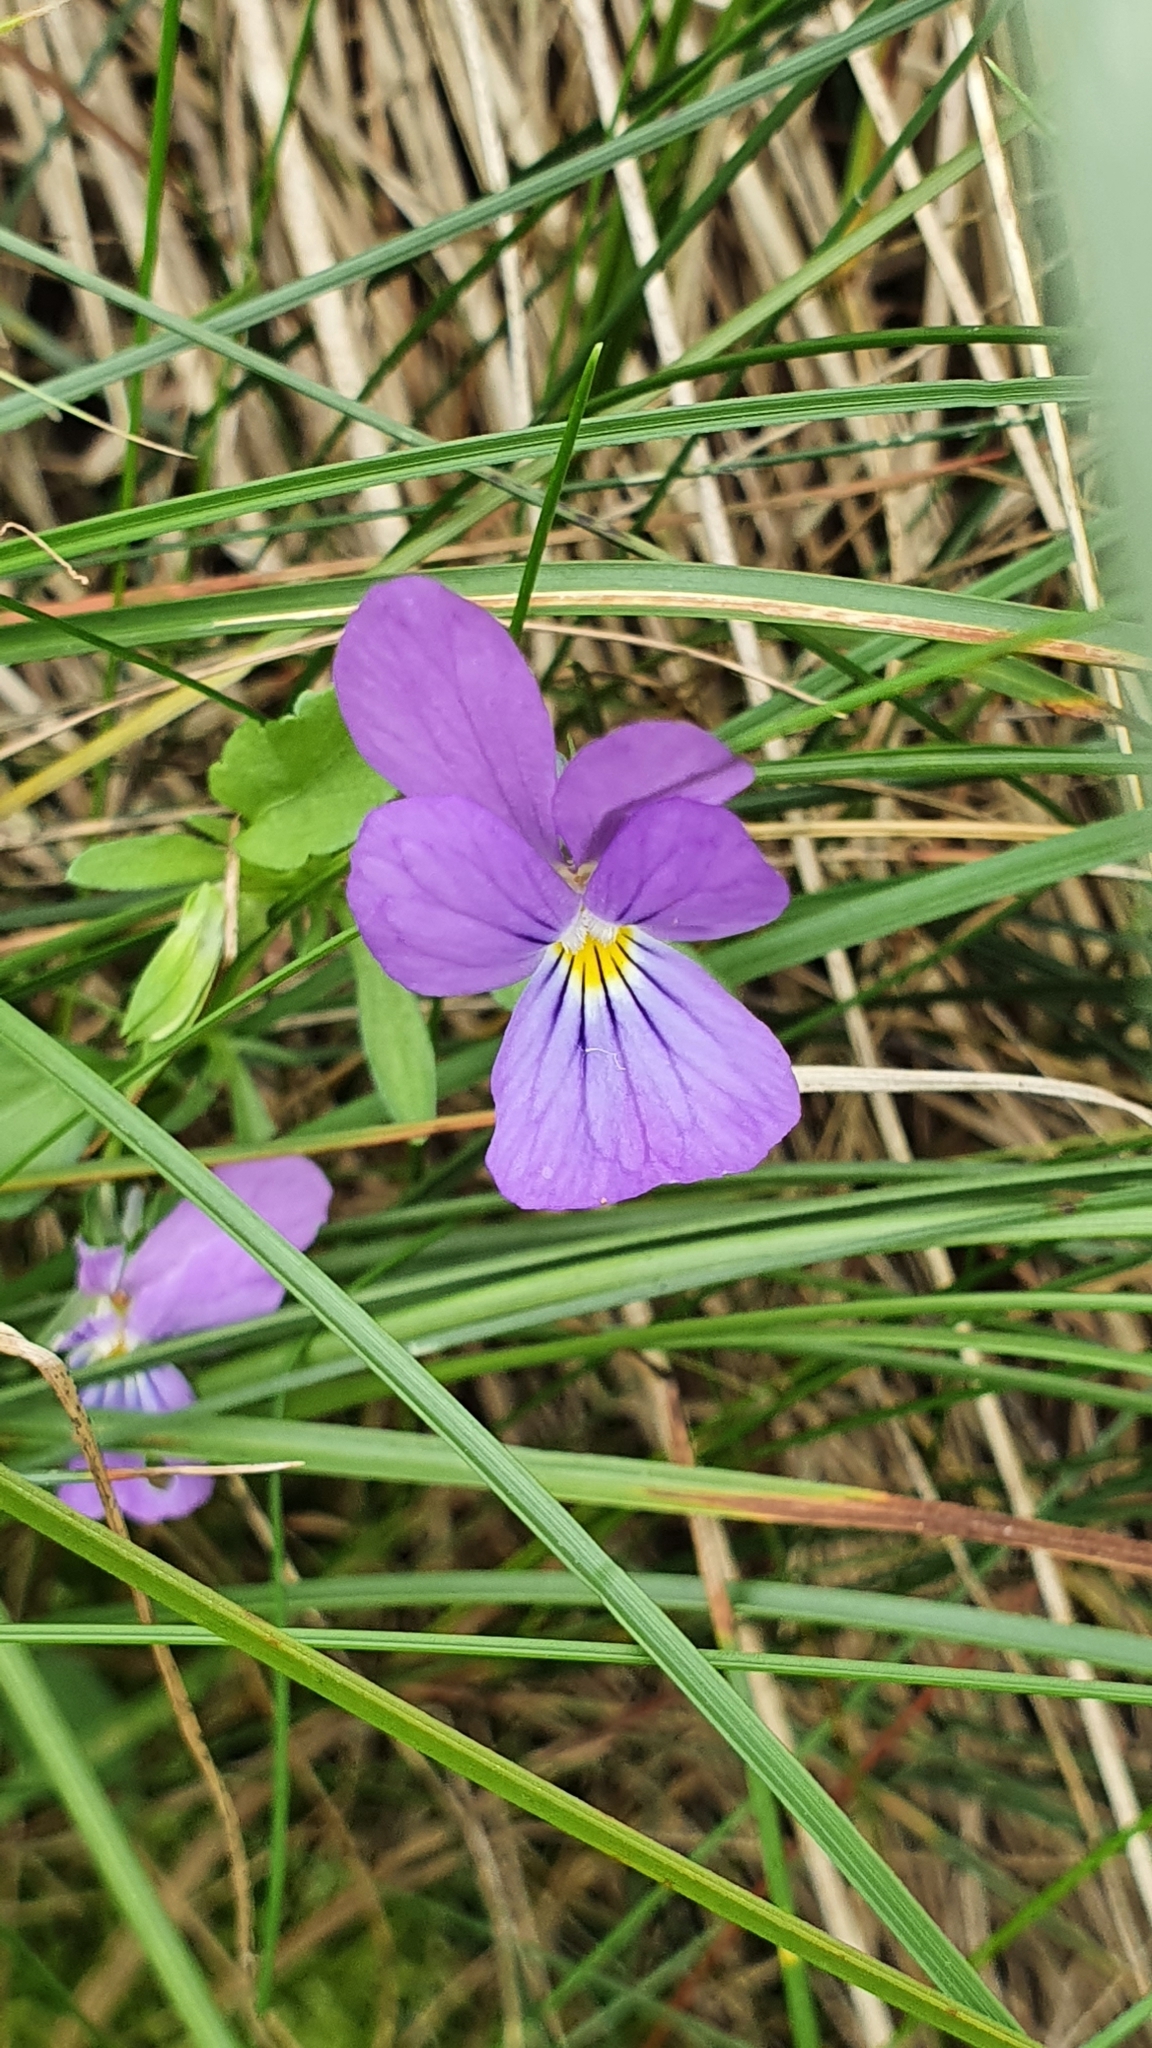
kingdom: Plantae
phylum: Tracheophyta
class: Magnoliopsida
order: Malpighiales
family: Violaceae
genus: Viola
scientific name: Viola tricolor
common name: Pansy
